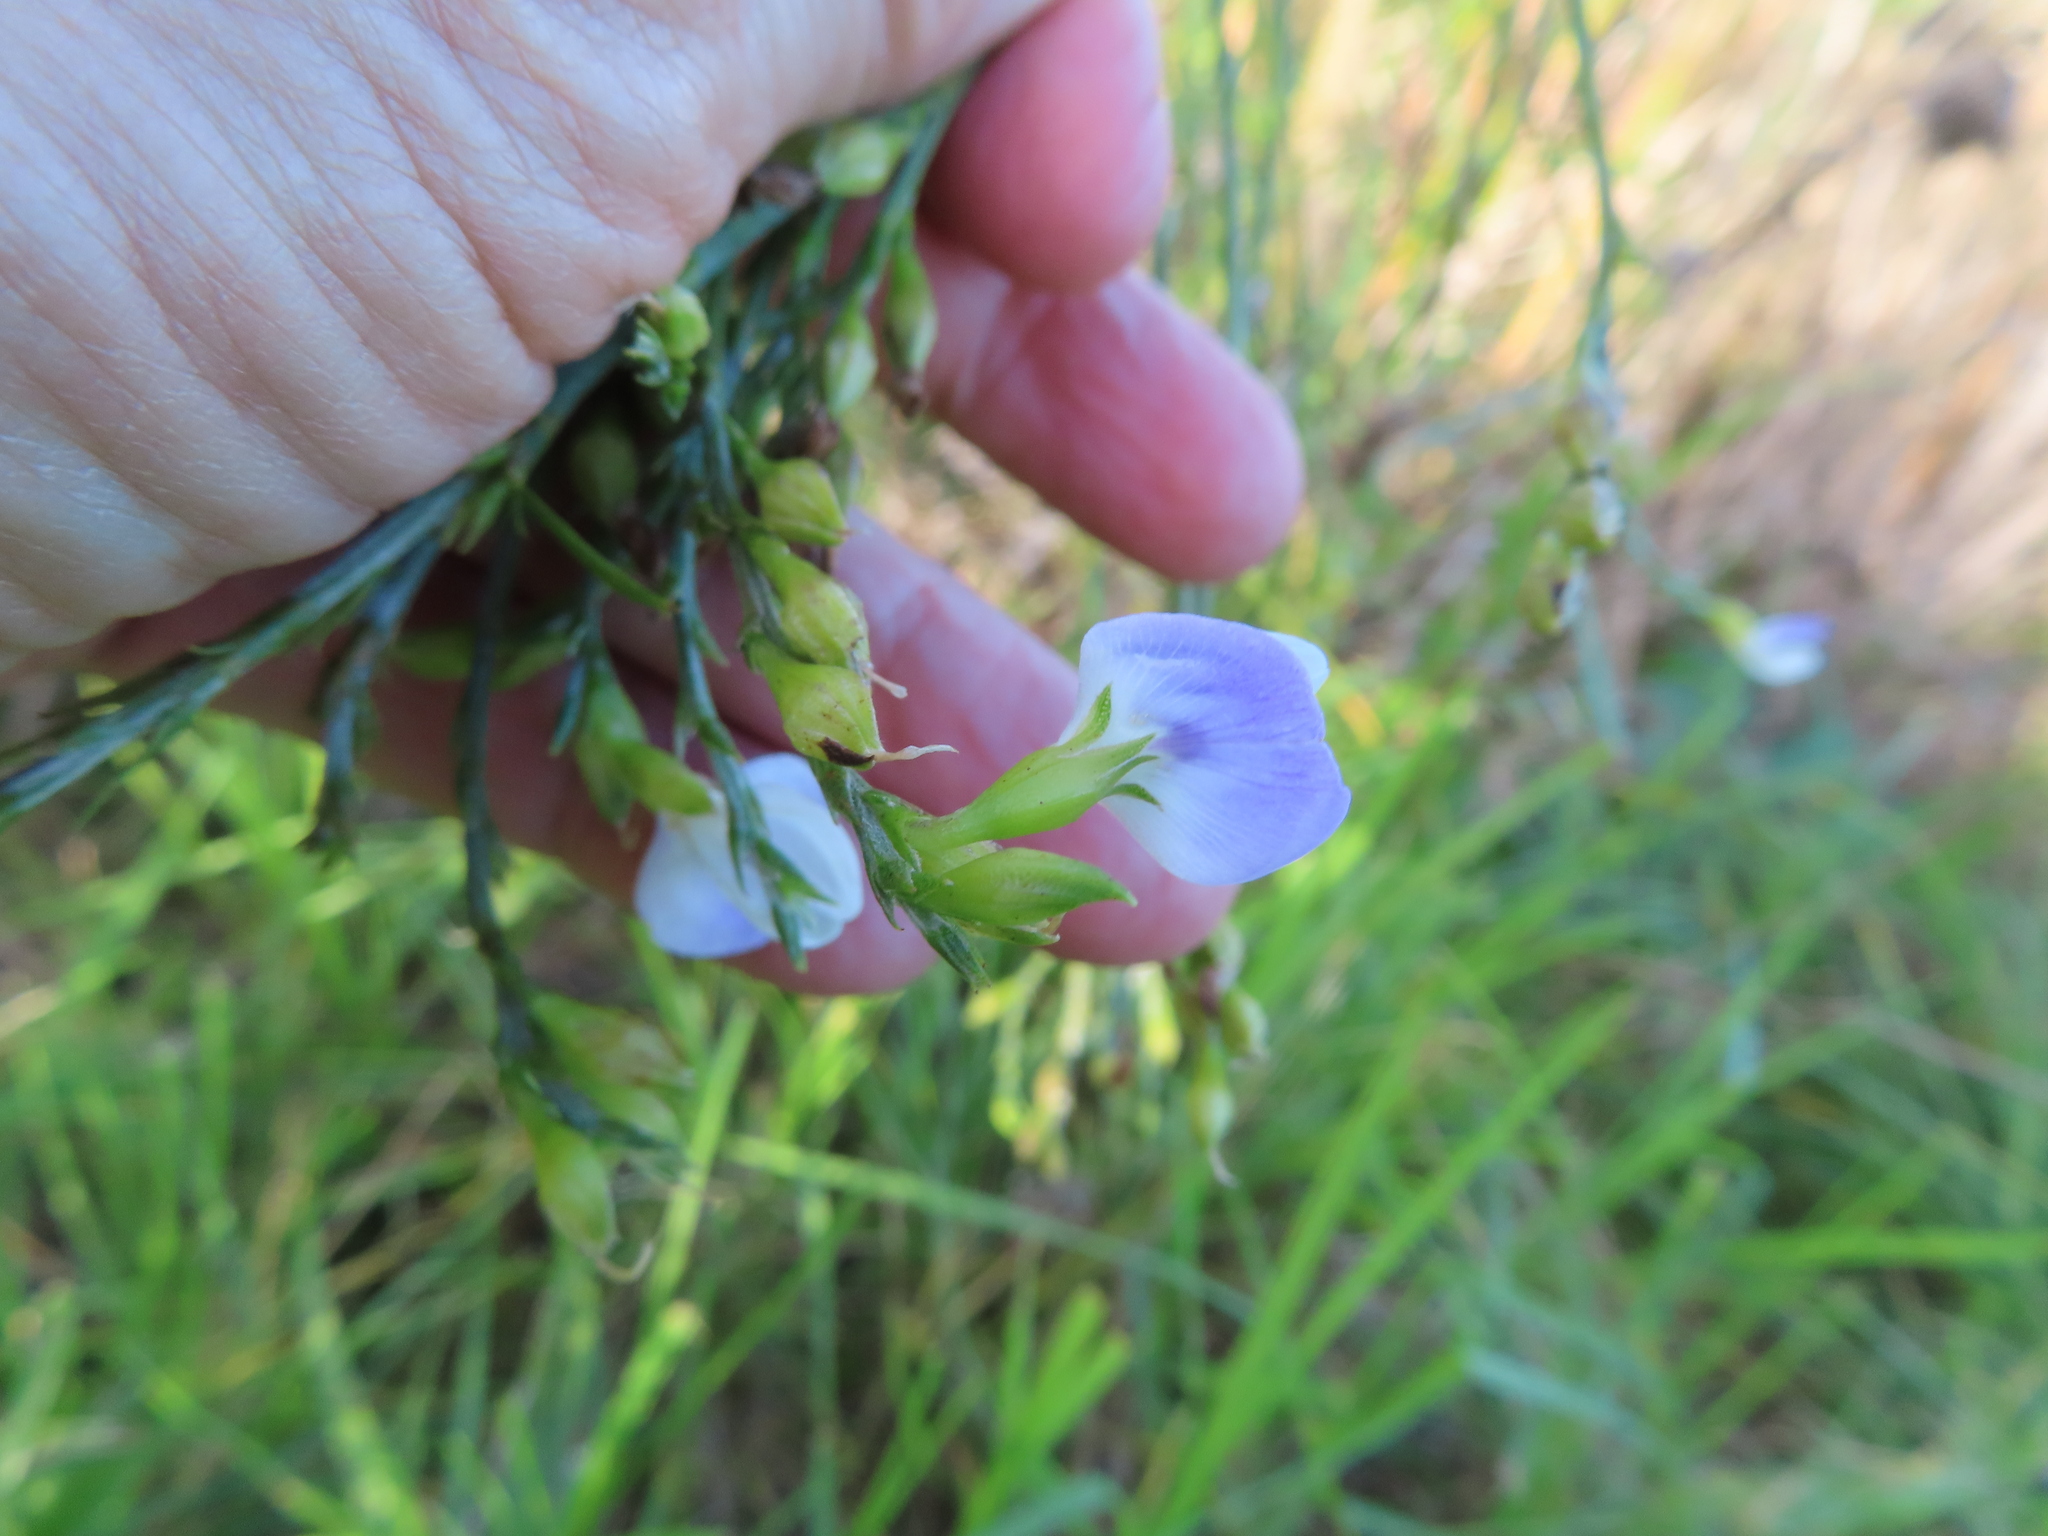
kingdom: Plantae
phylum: Tracheophyta
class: Magnoliopsida
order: Fabales
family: Fabaceae
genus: Psoralea
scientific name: Psoralea aphylla
